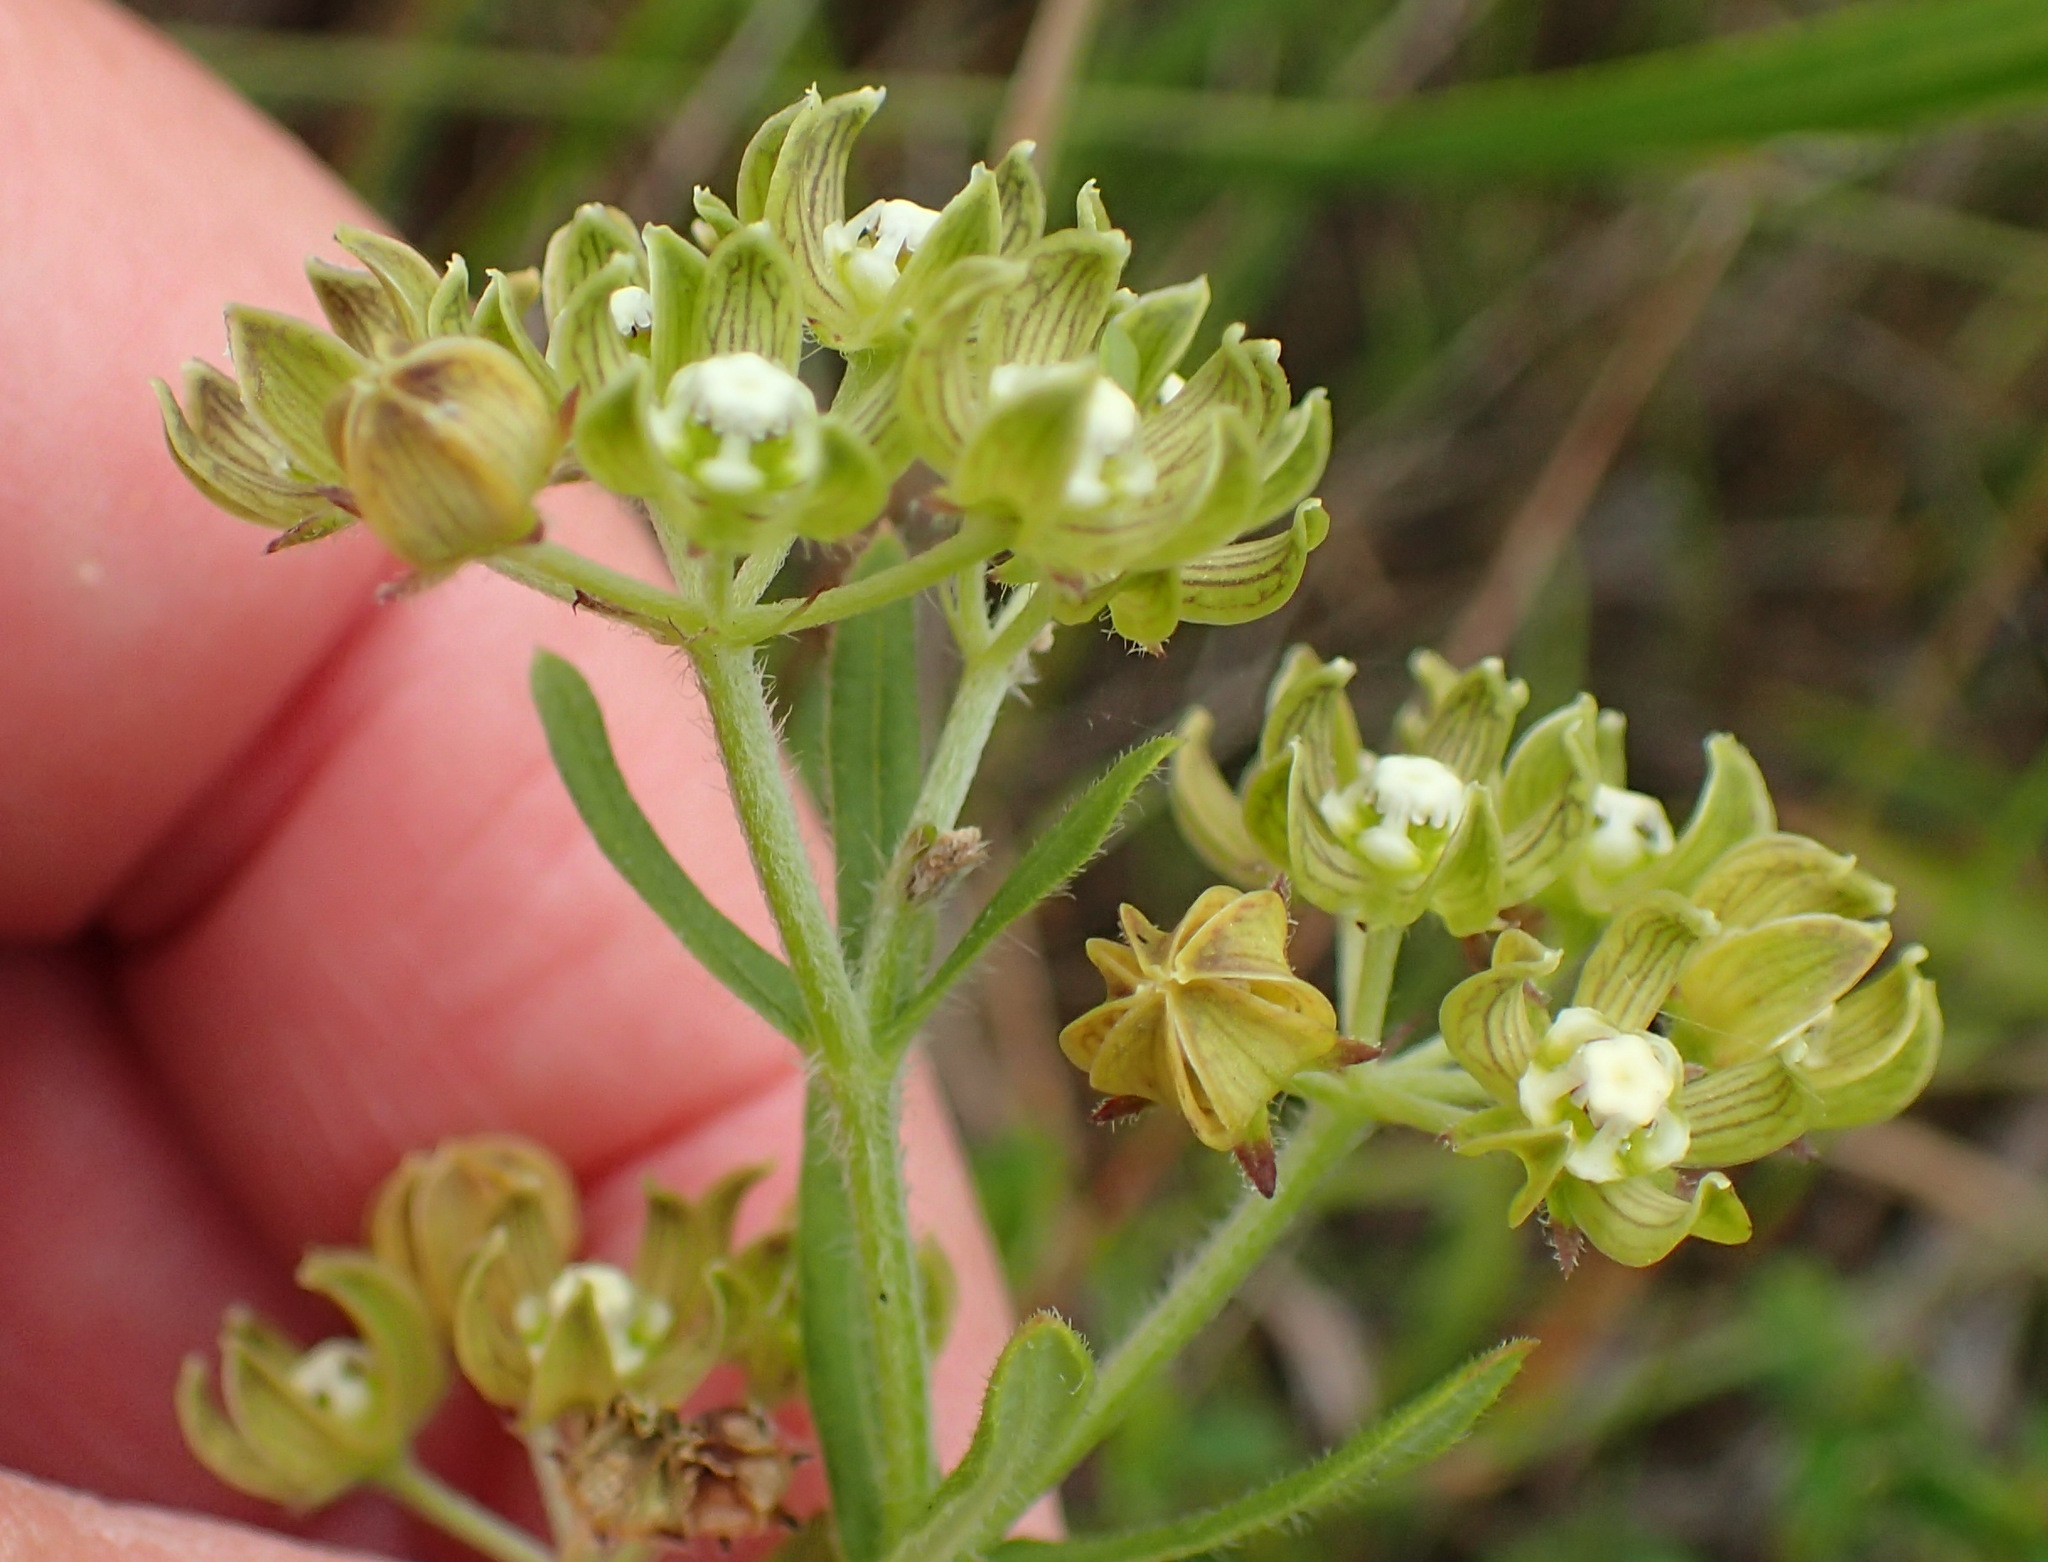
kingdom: Plantae
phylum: Tracheophyta
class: Magnoliopsida
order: Gentianales
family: Apocynaceae
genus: Schizoglossum
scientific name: Schizoglossum cordifolium
